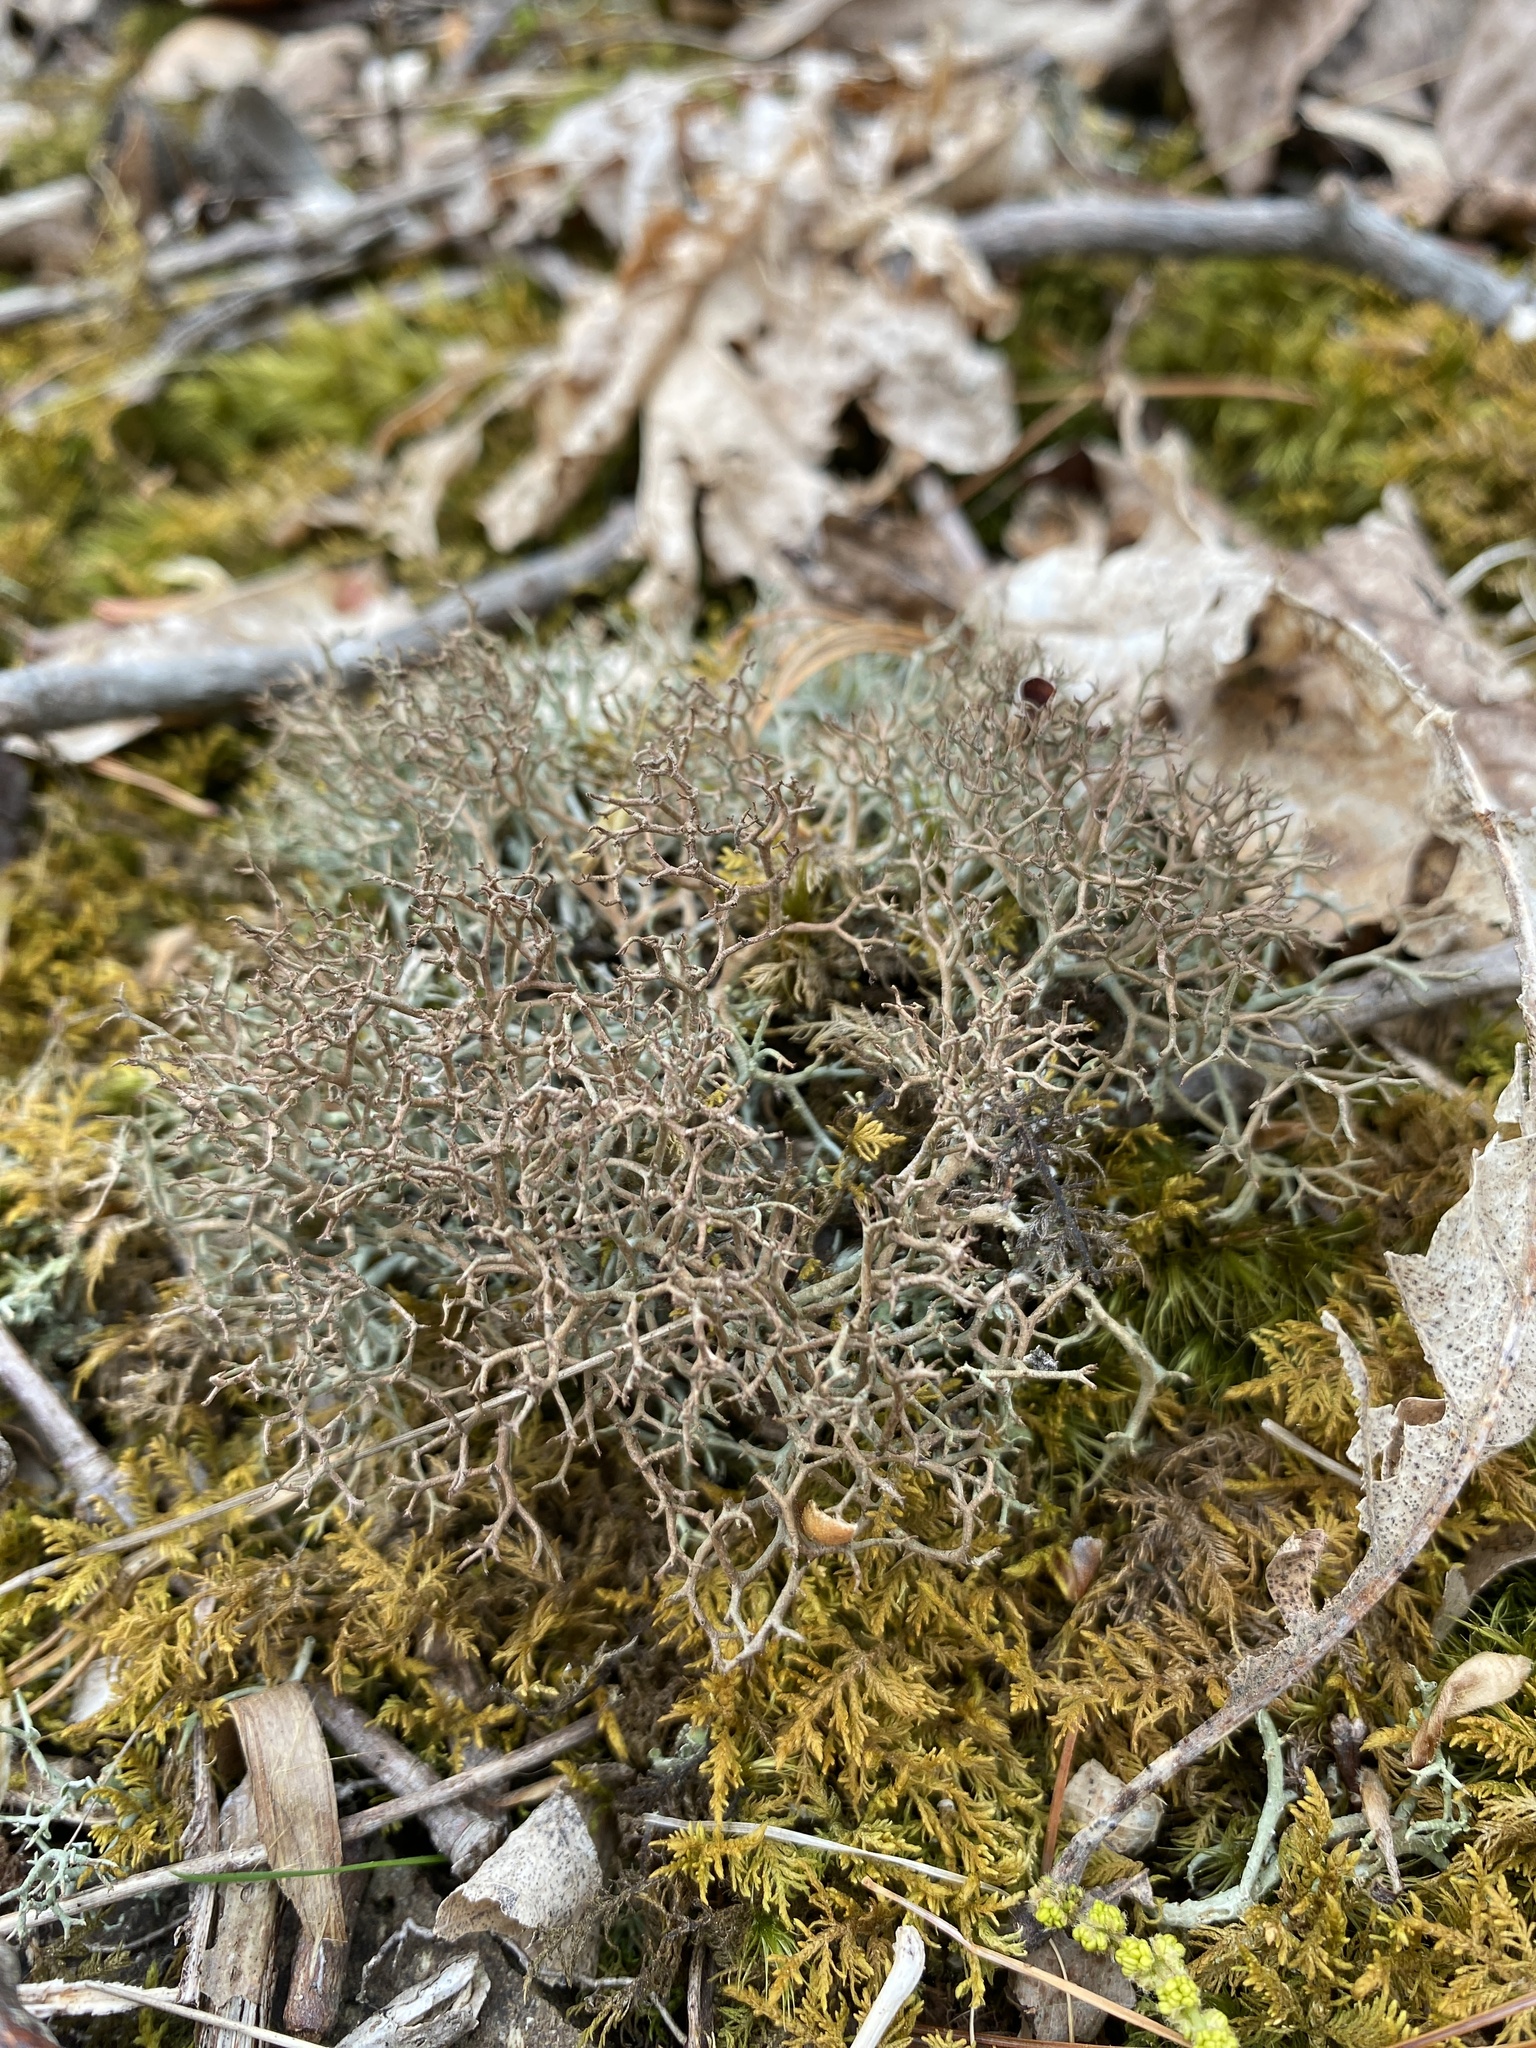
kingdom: Fungi
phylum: Ascomycota
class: Lecanoromycetes
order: Lecanorales
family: Cladoniaceae
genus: Cladonia
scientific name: Cladonia furcata
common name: Many-forked cladonia
